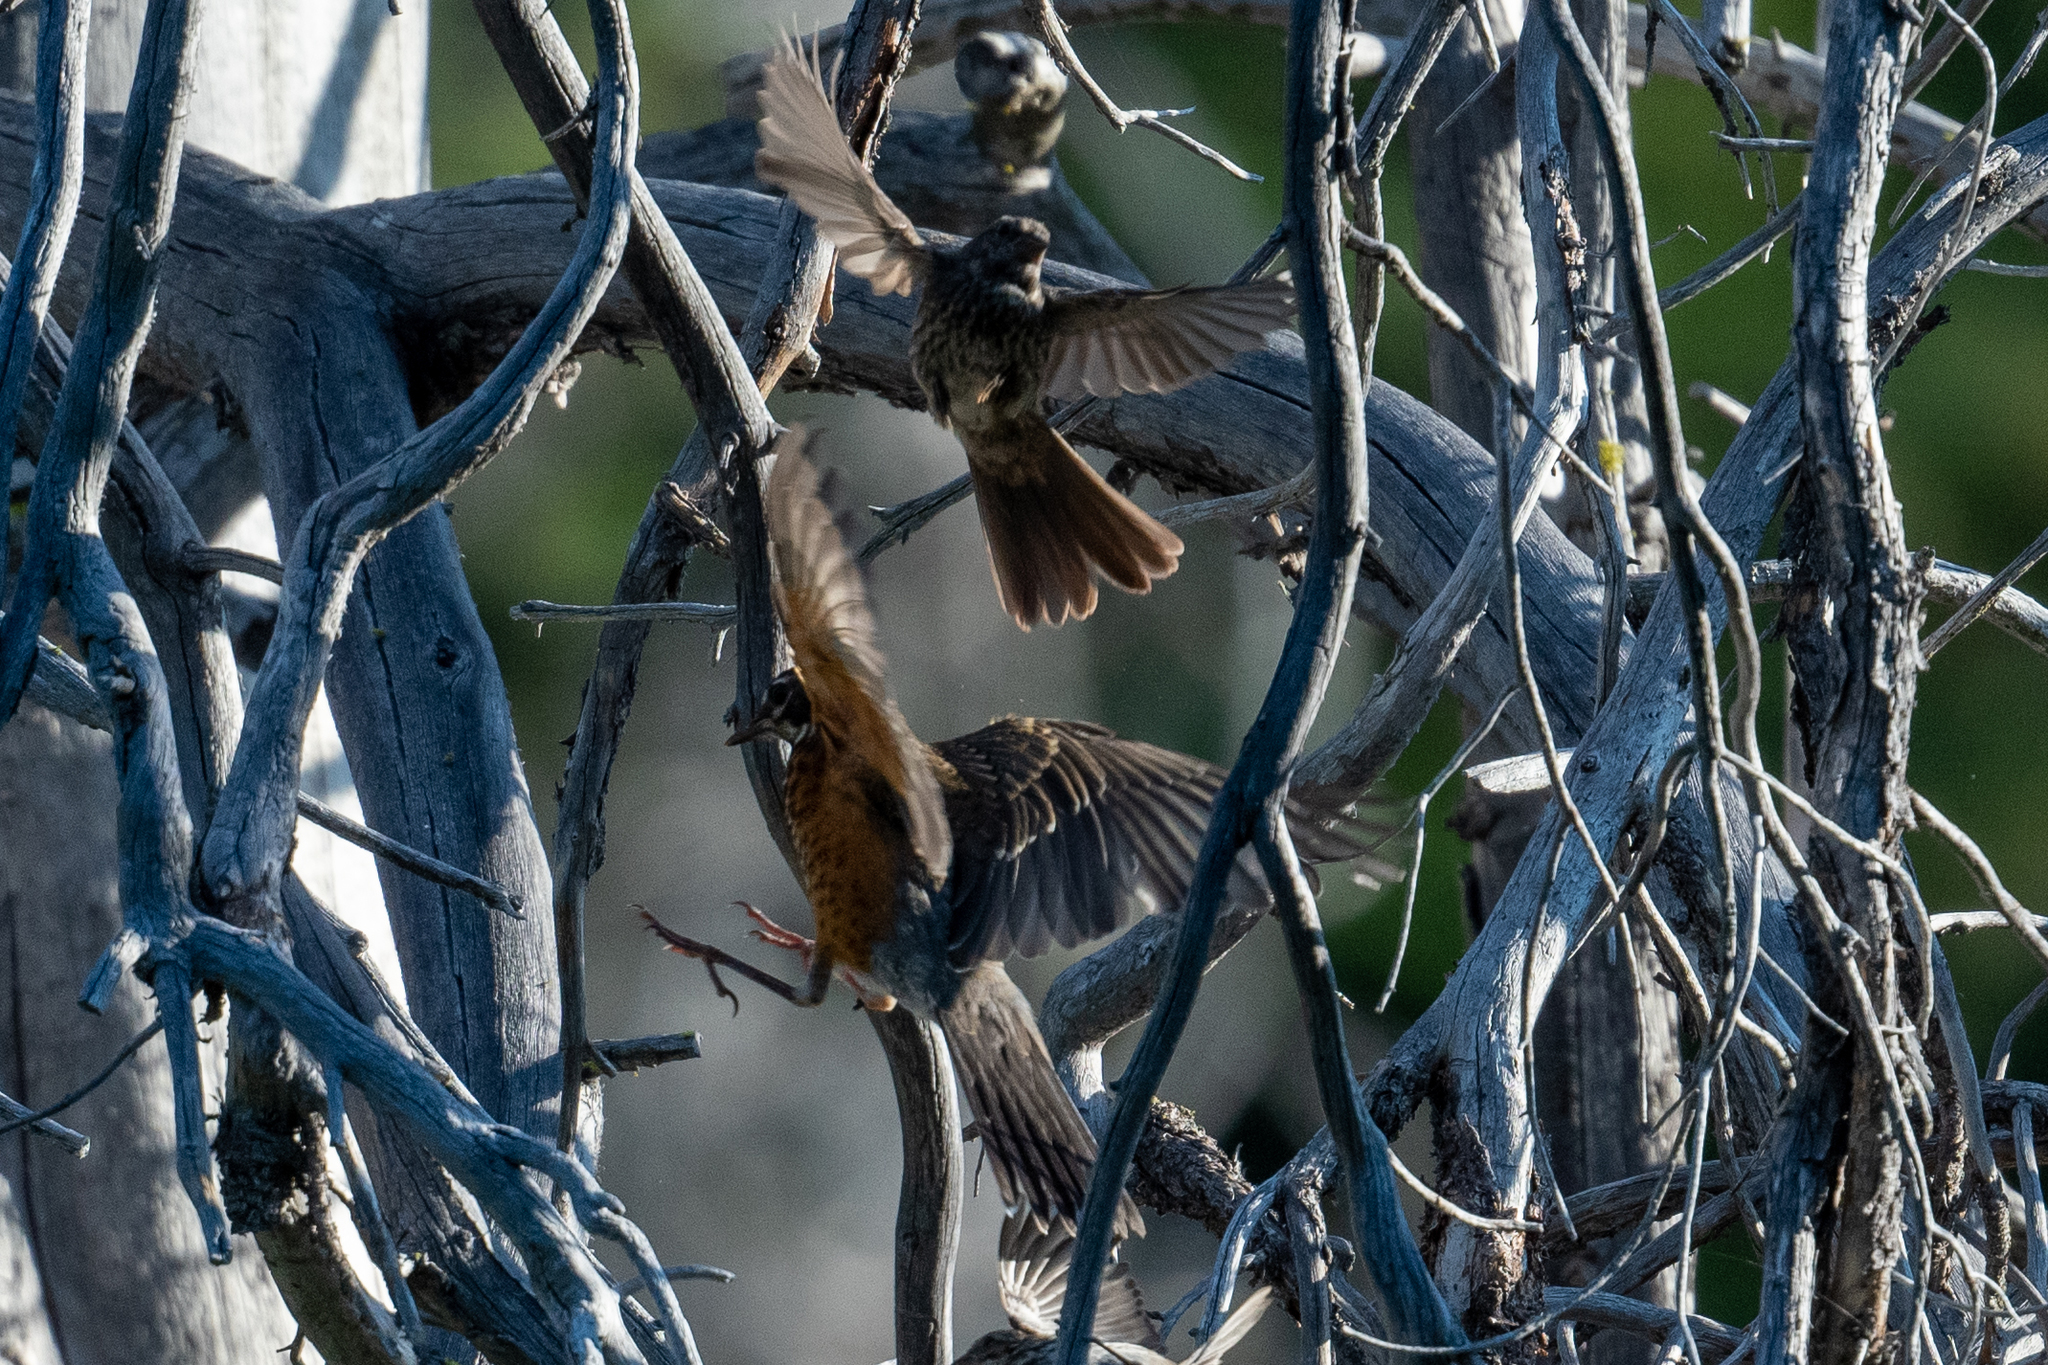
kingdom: Animalia
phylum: Chordata
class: Aves
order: Passeriformes
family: Turdidae
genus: Turdus
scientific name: Turdus migratorius
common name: American robin
